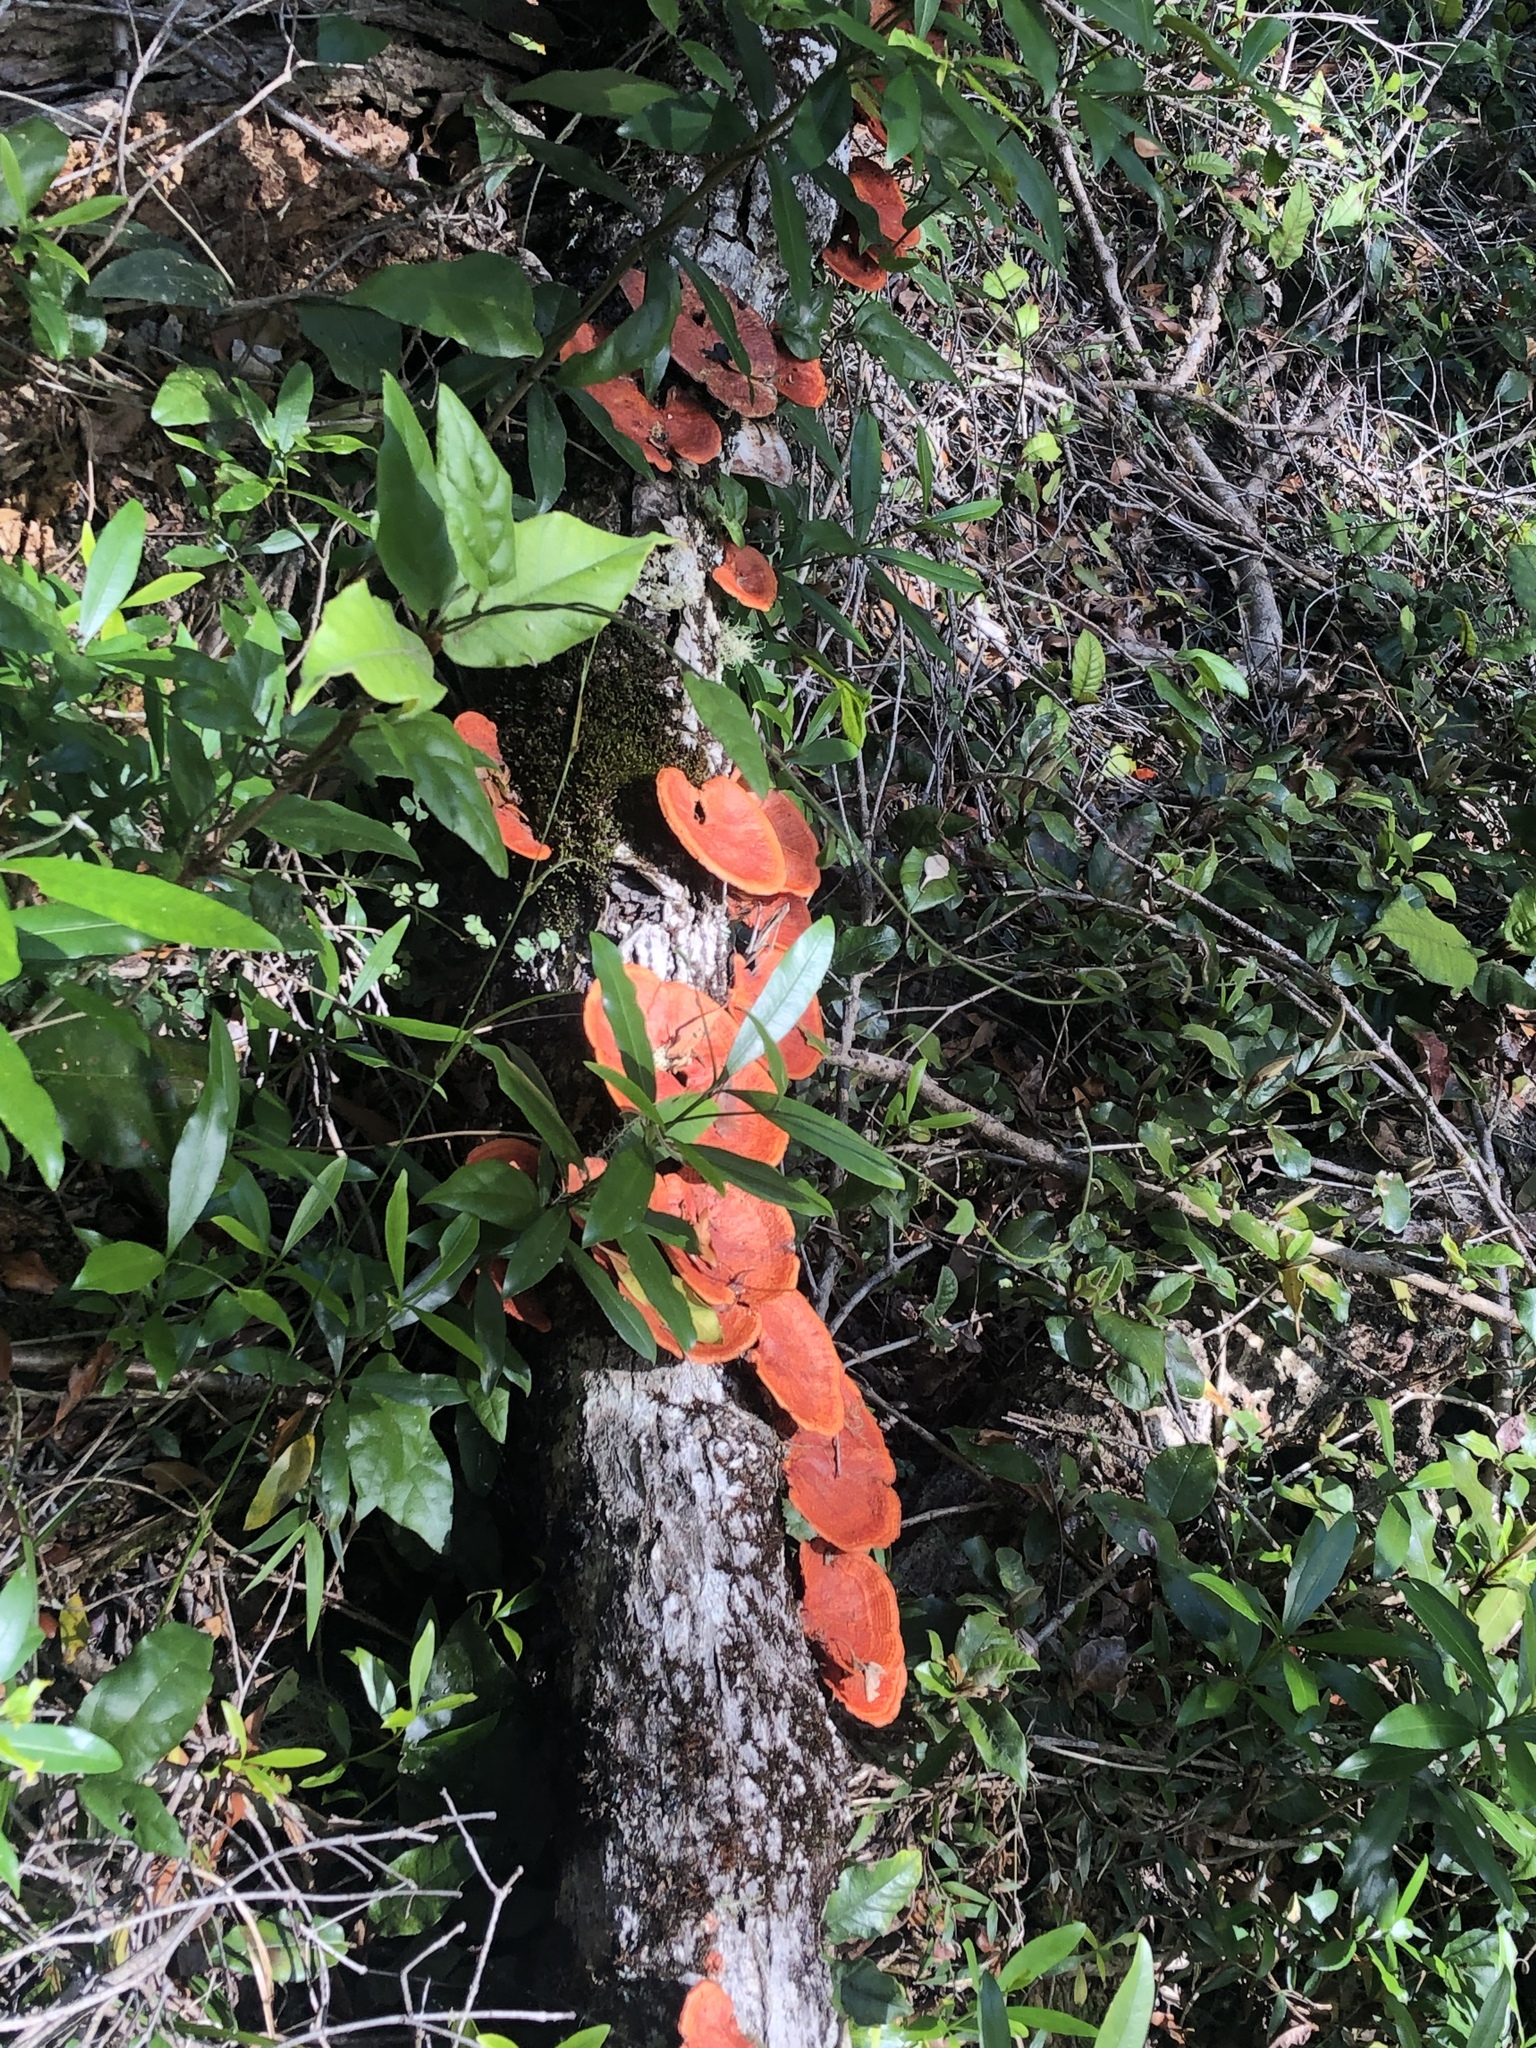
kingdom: Fungi
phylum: Basidiomycota
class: Agaricomycetes
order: Polyporales
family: Polyporaceae
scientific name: Polyporaceae
